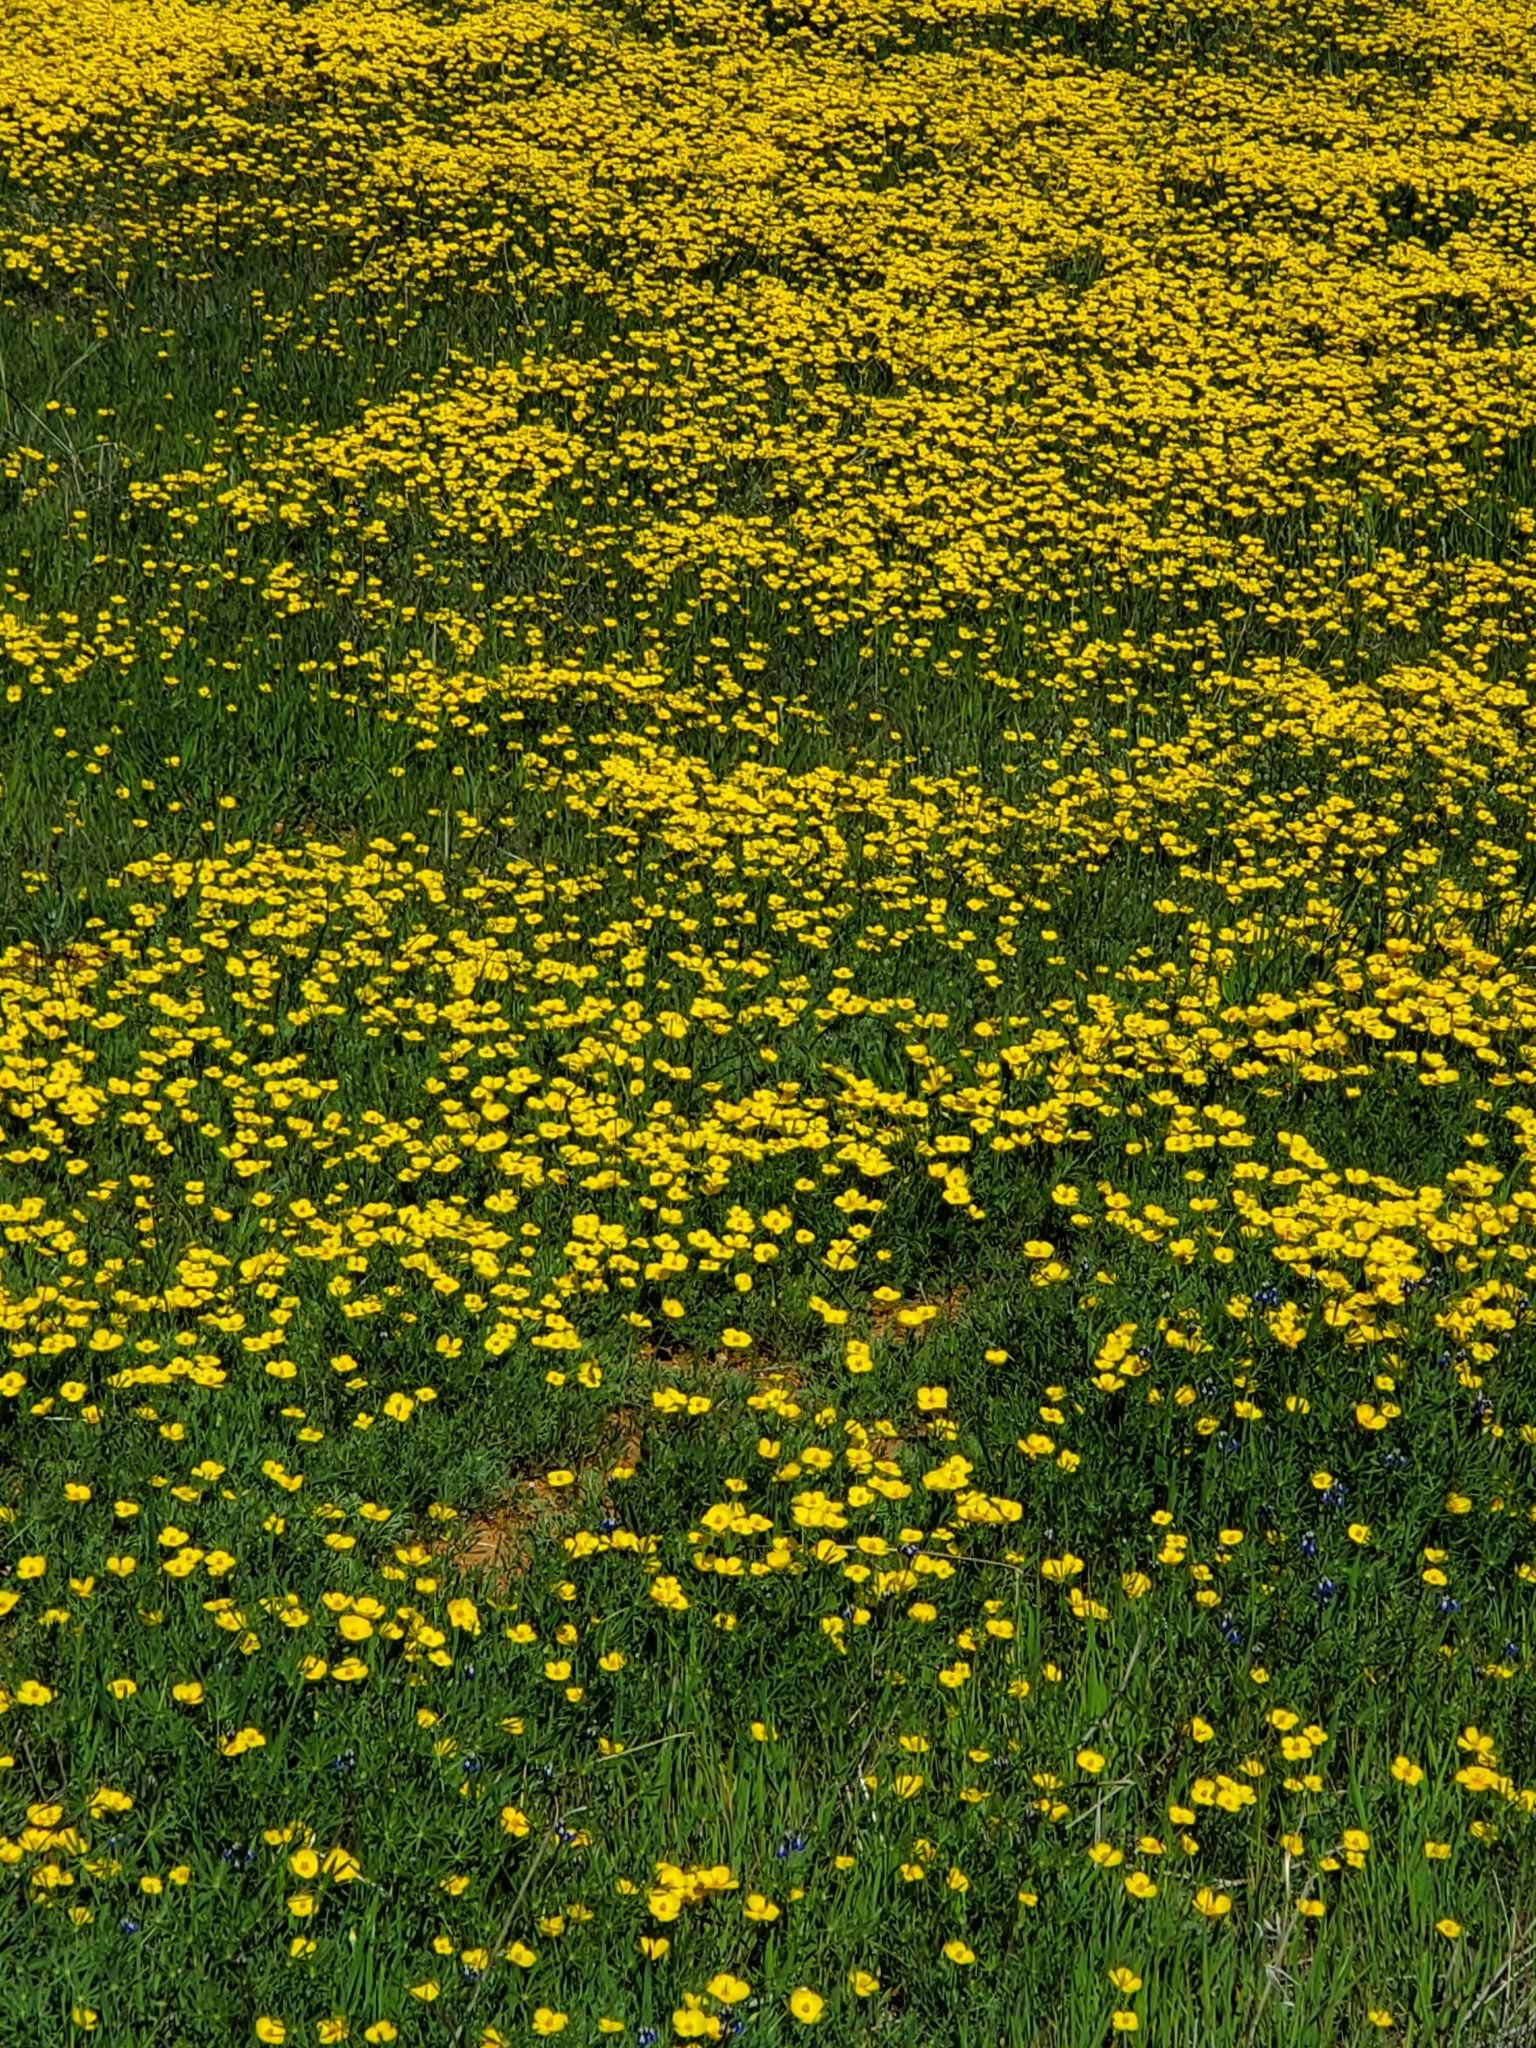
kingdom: Plantae
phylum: Tracheophyta
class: Magnoliopsida
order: Ranunculales
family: Papaveraceae
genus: Eschscholzia
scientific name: Eschscholzia lobbii
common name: Frying-pans
